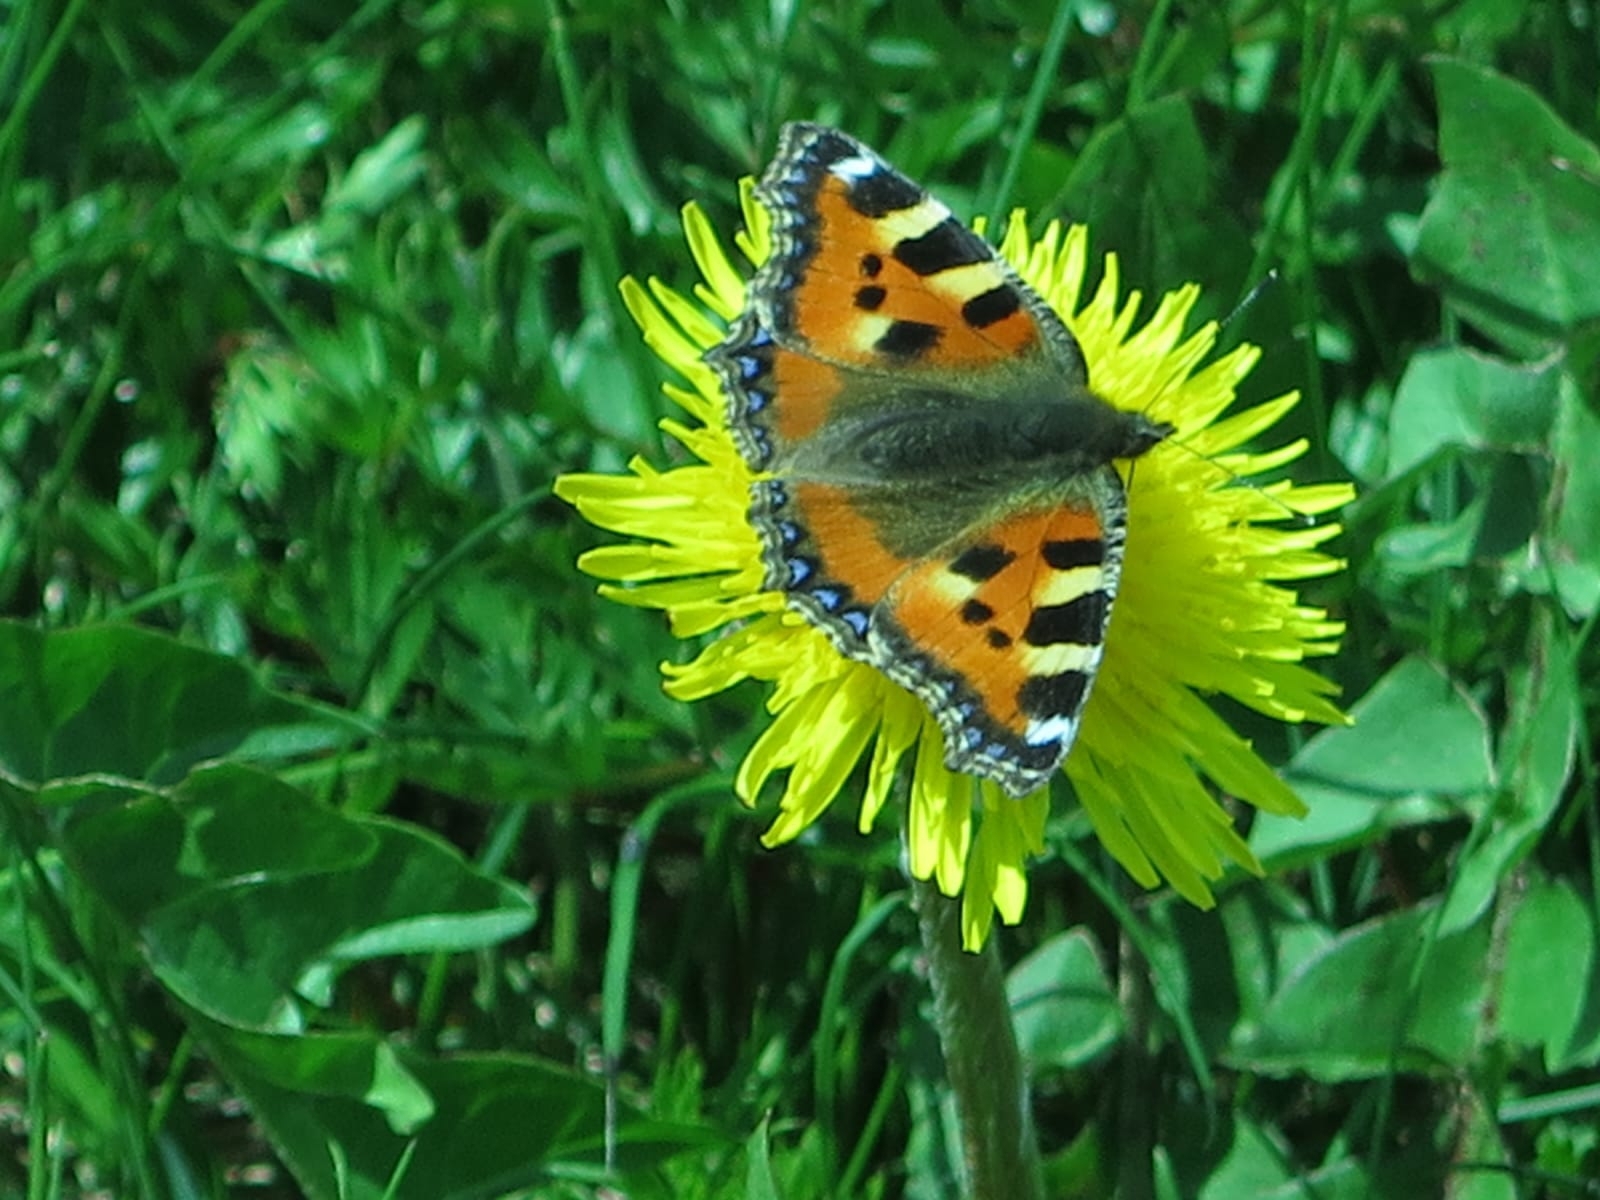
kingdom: Animalia
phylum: Arthropoda
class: Insecta
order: Lepidoptera
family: Nymphalidae
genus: Aglais
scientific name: Aglais urticae
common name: Small tortoiseshell
